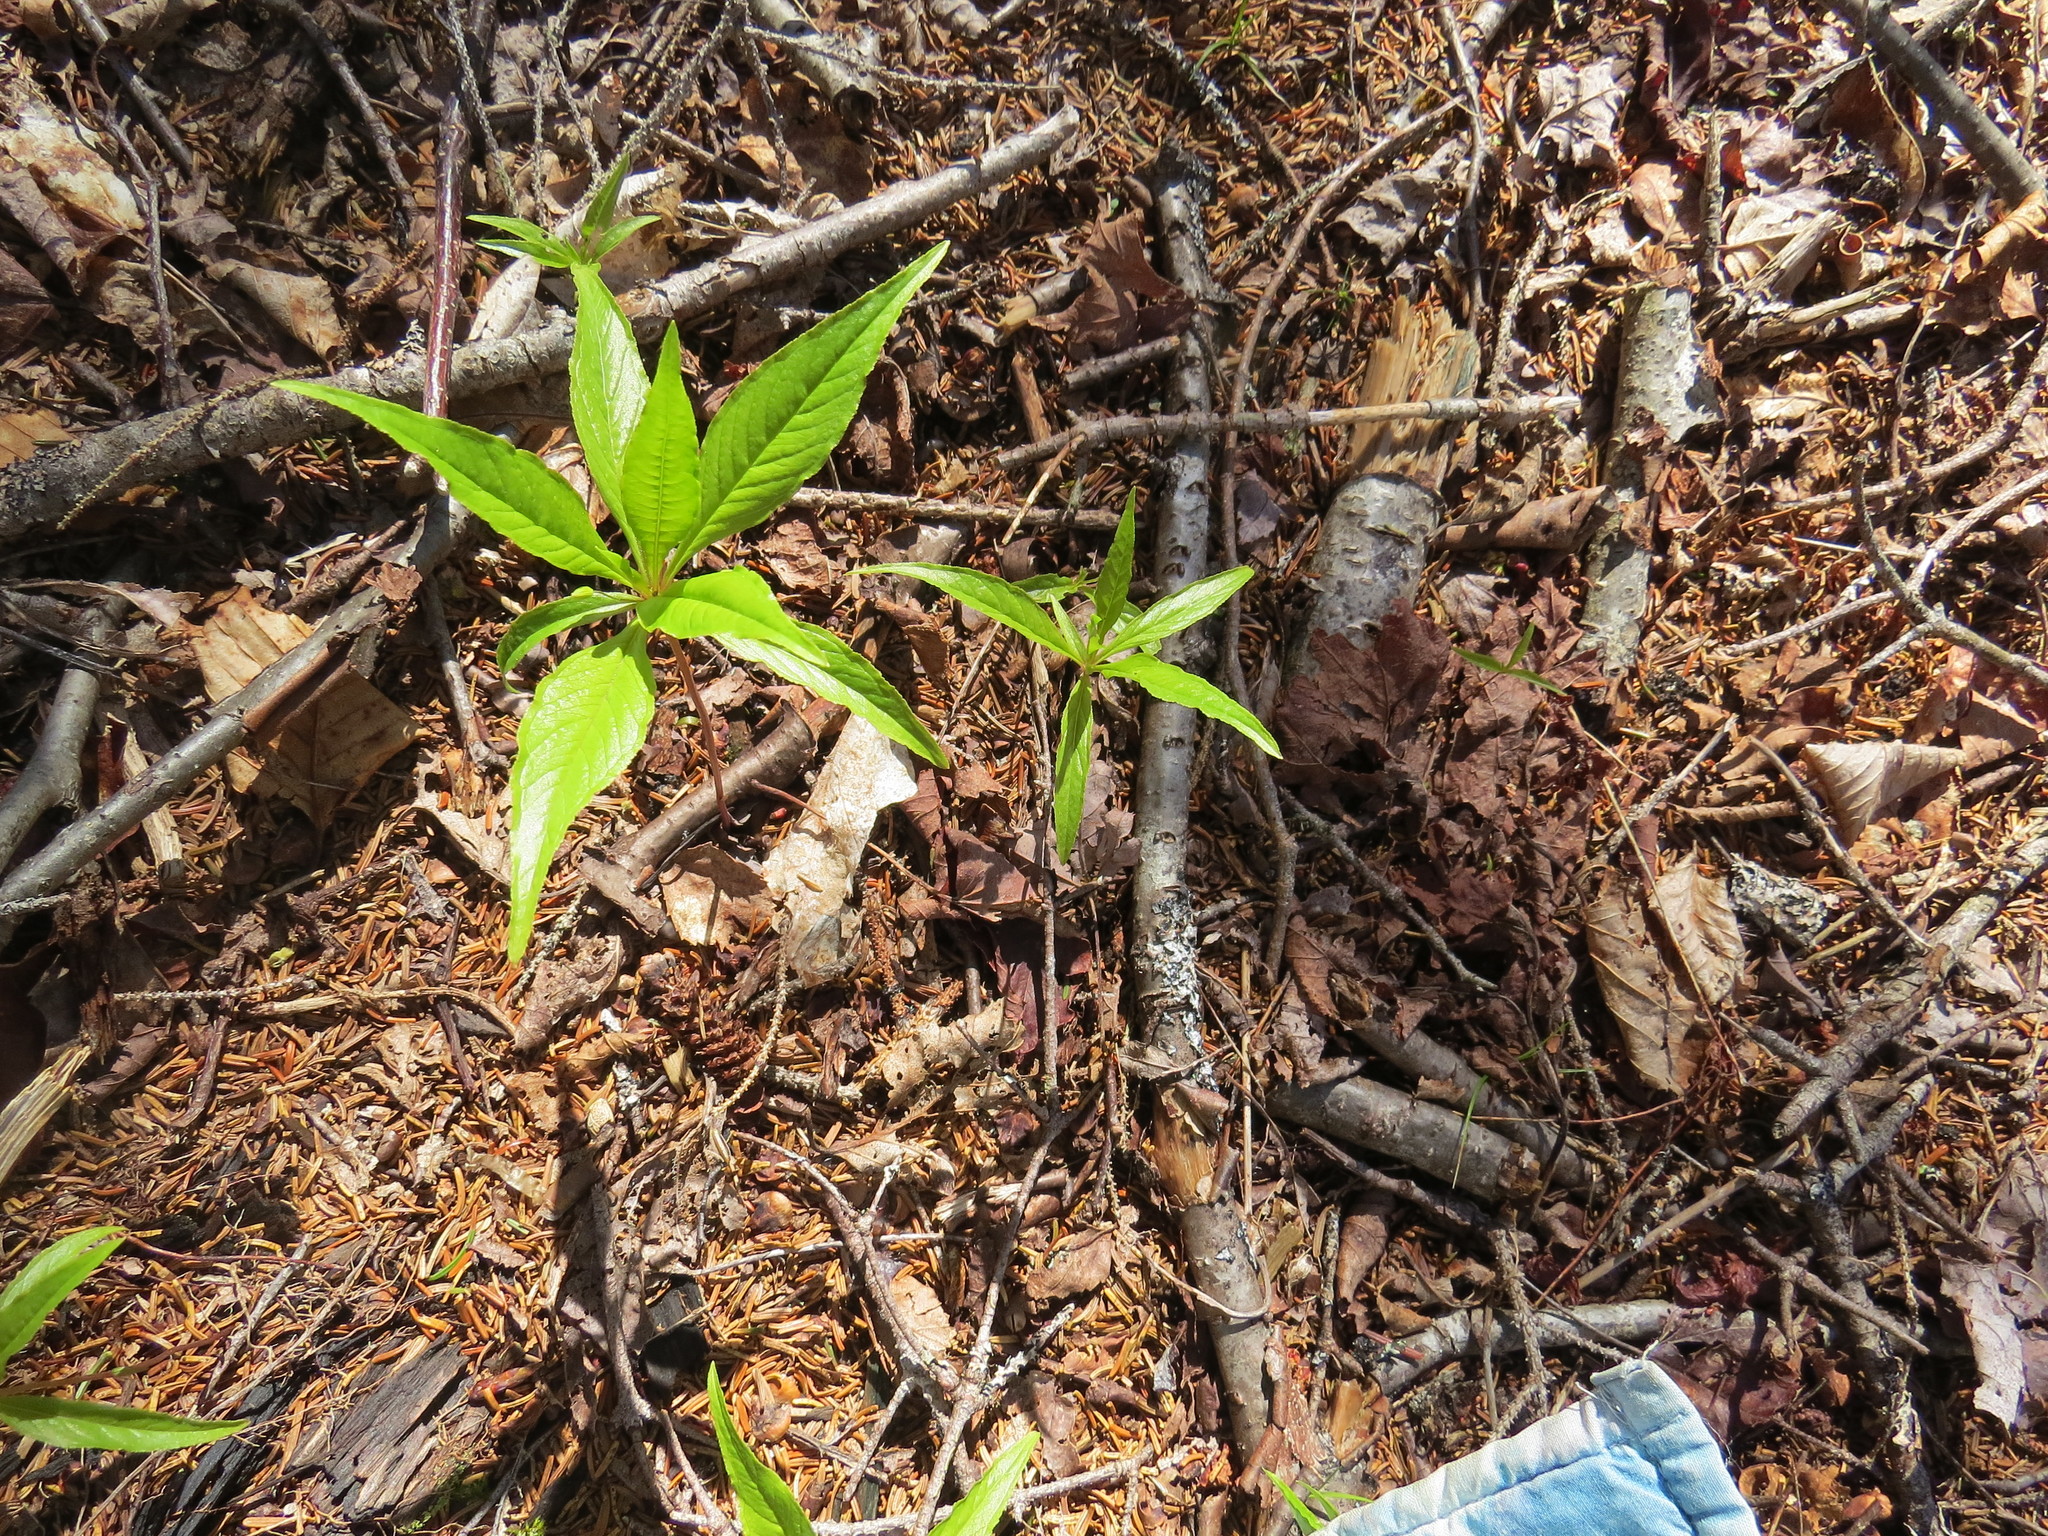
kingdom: Plantae
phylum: Tracheophyta
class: Magnoliopsida
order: Ericales
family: Primulaceae
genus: Lysimachia
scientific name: Lysimachia borealis
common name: American starflower
